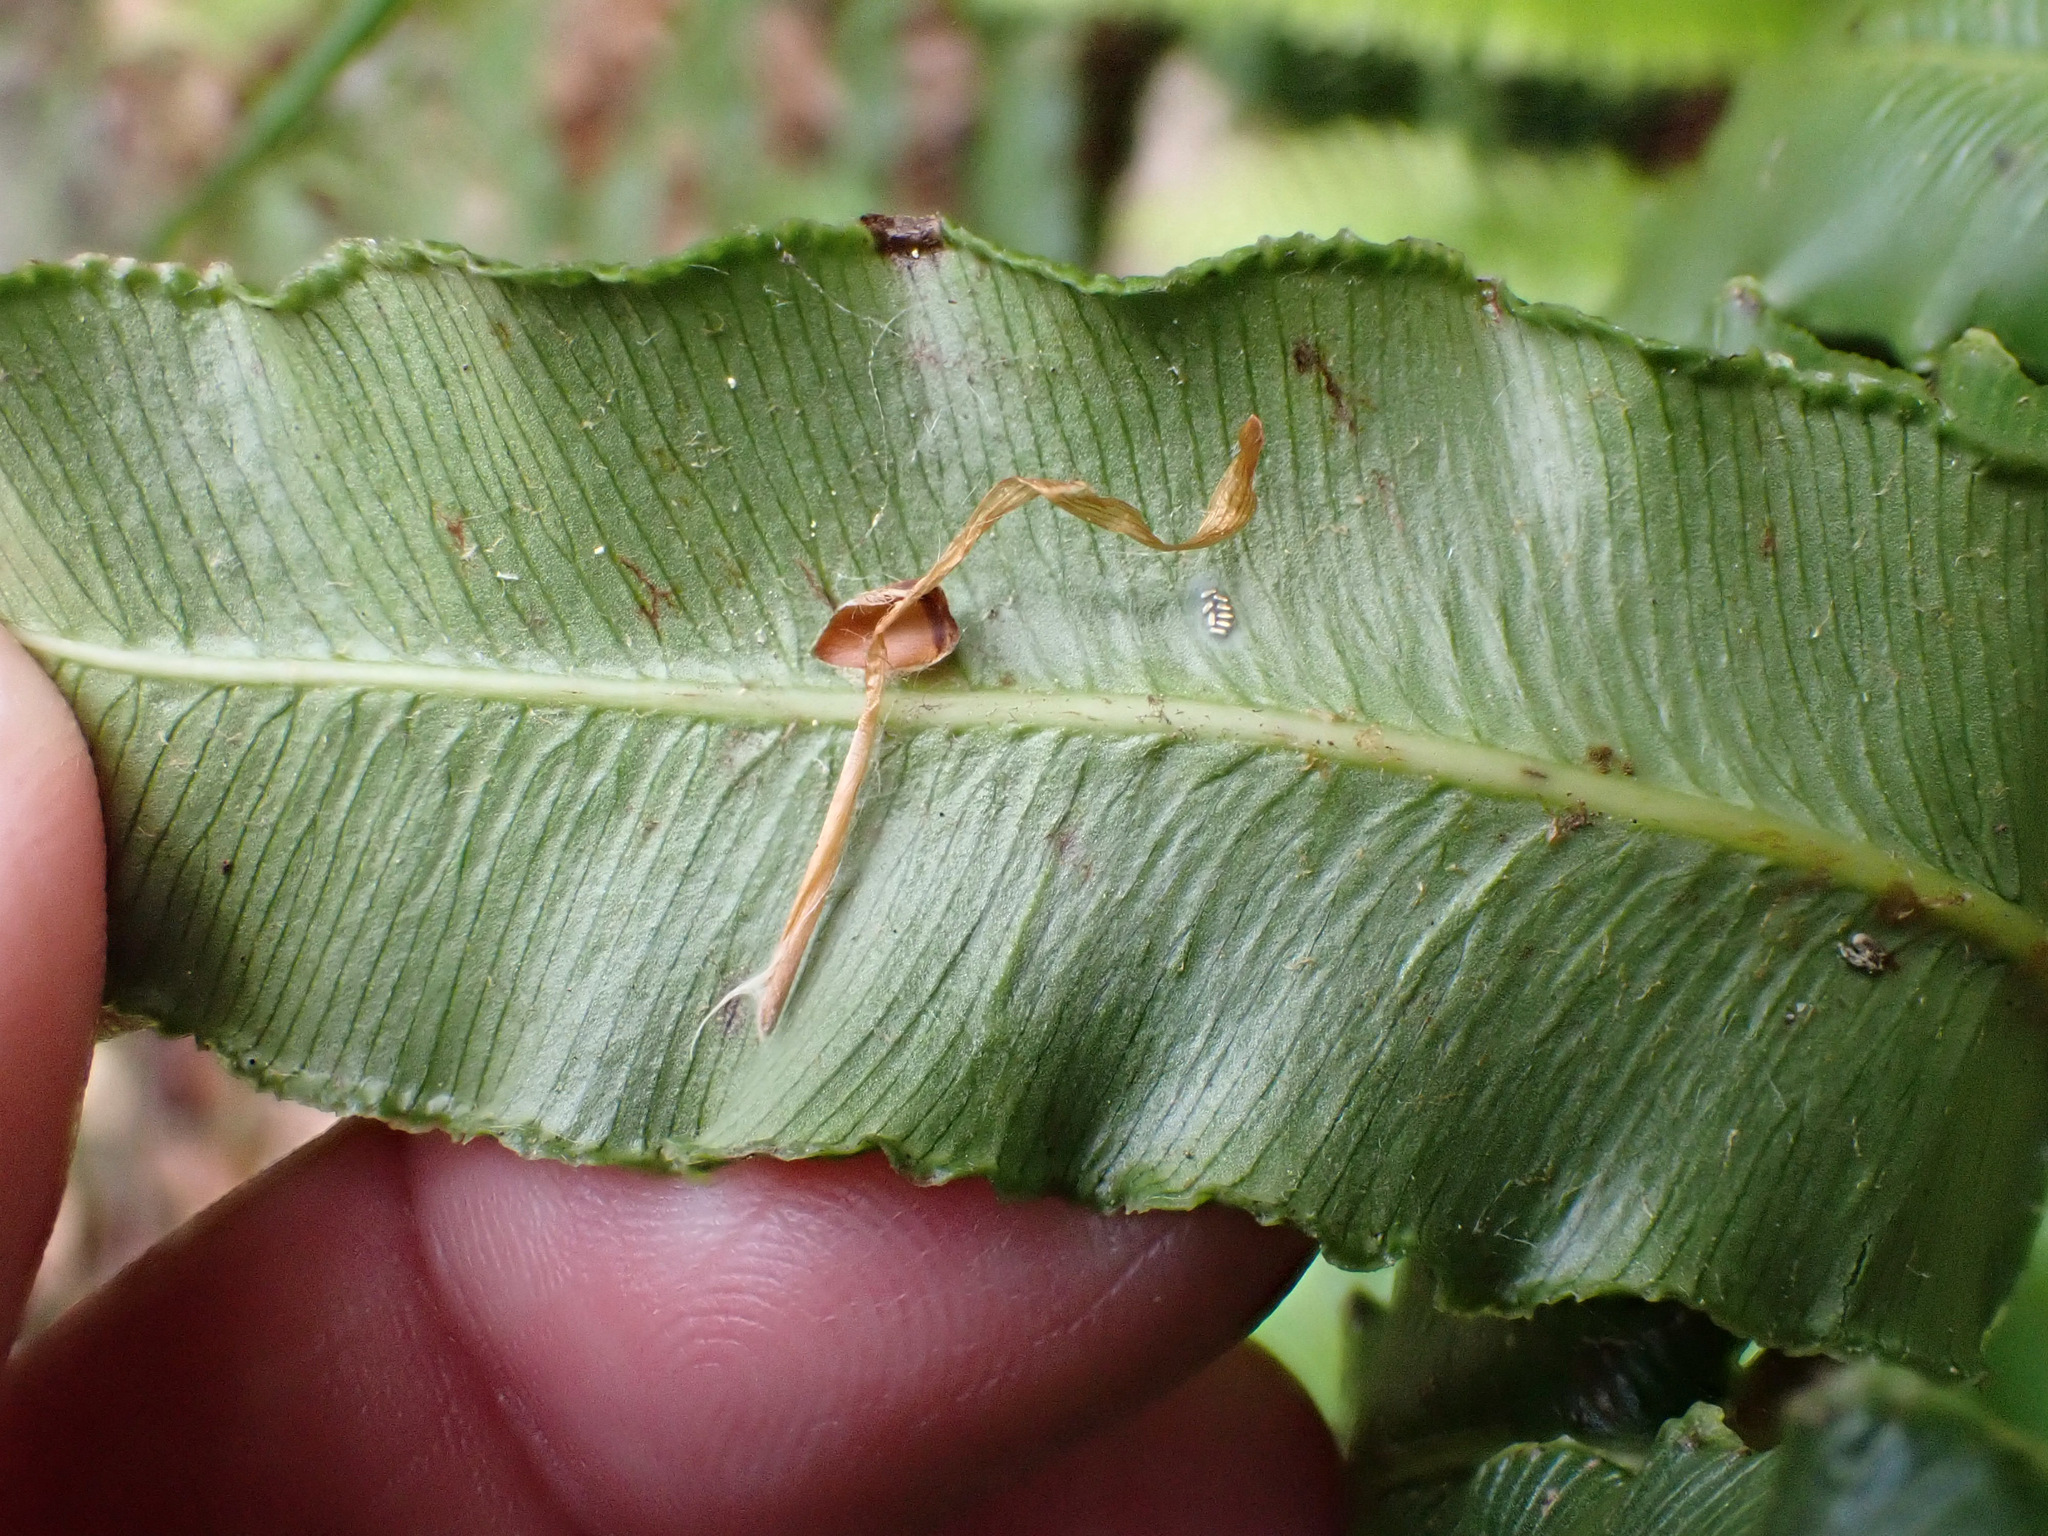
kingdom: Plantae
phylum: Tracheophyta
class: Polypodiopsida
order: Polypodiales
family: Blechnaceae
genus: Parablechnum
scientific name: Parablechnum cordatum
